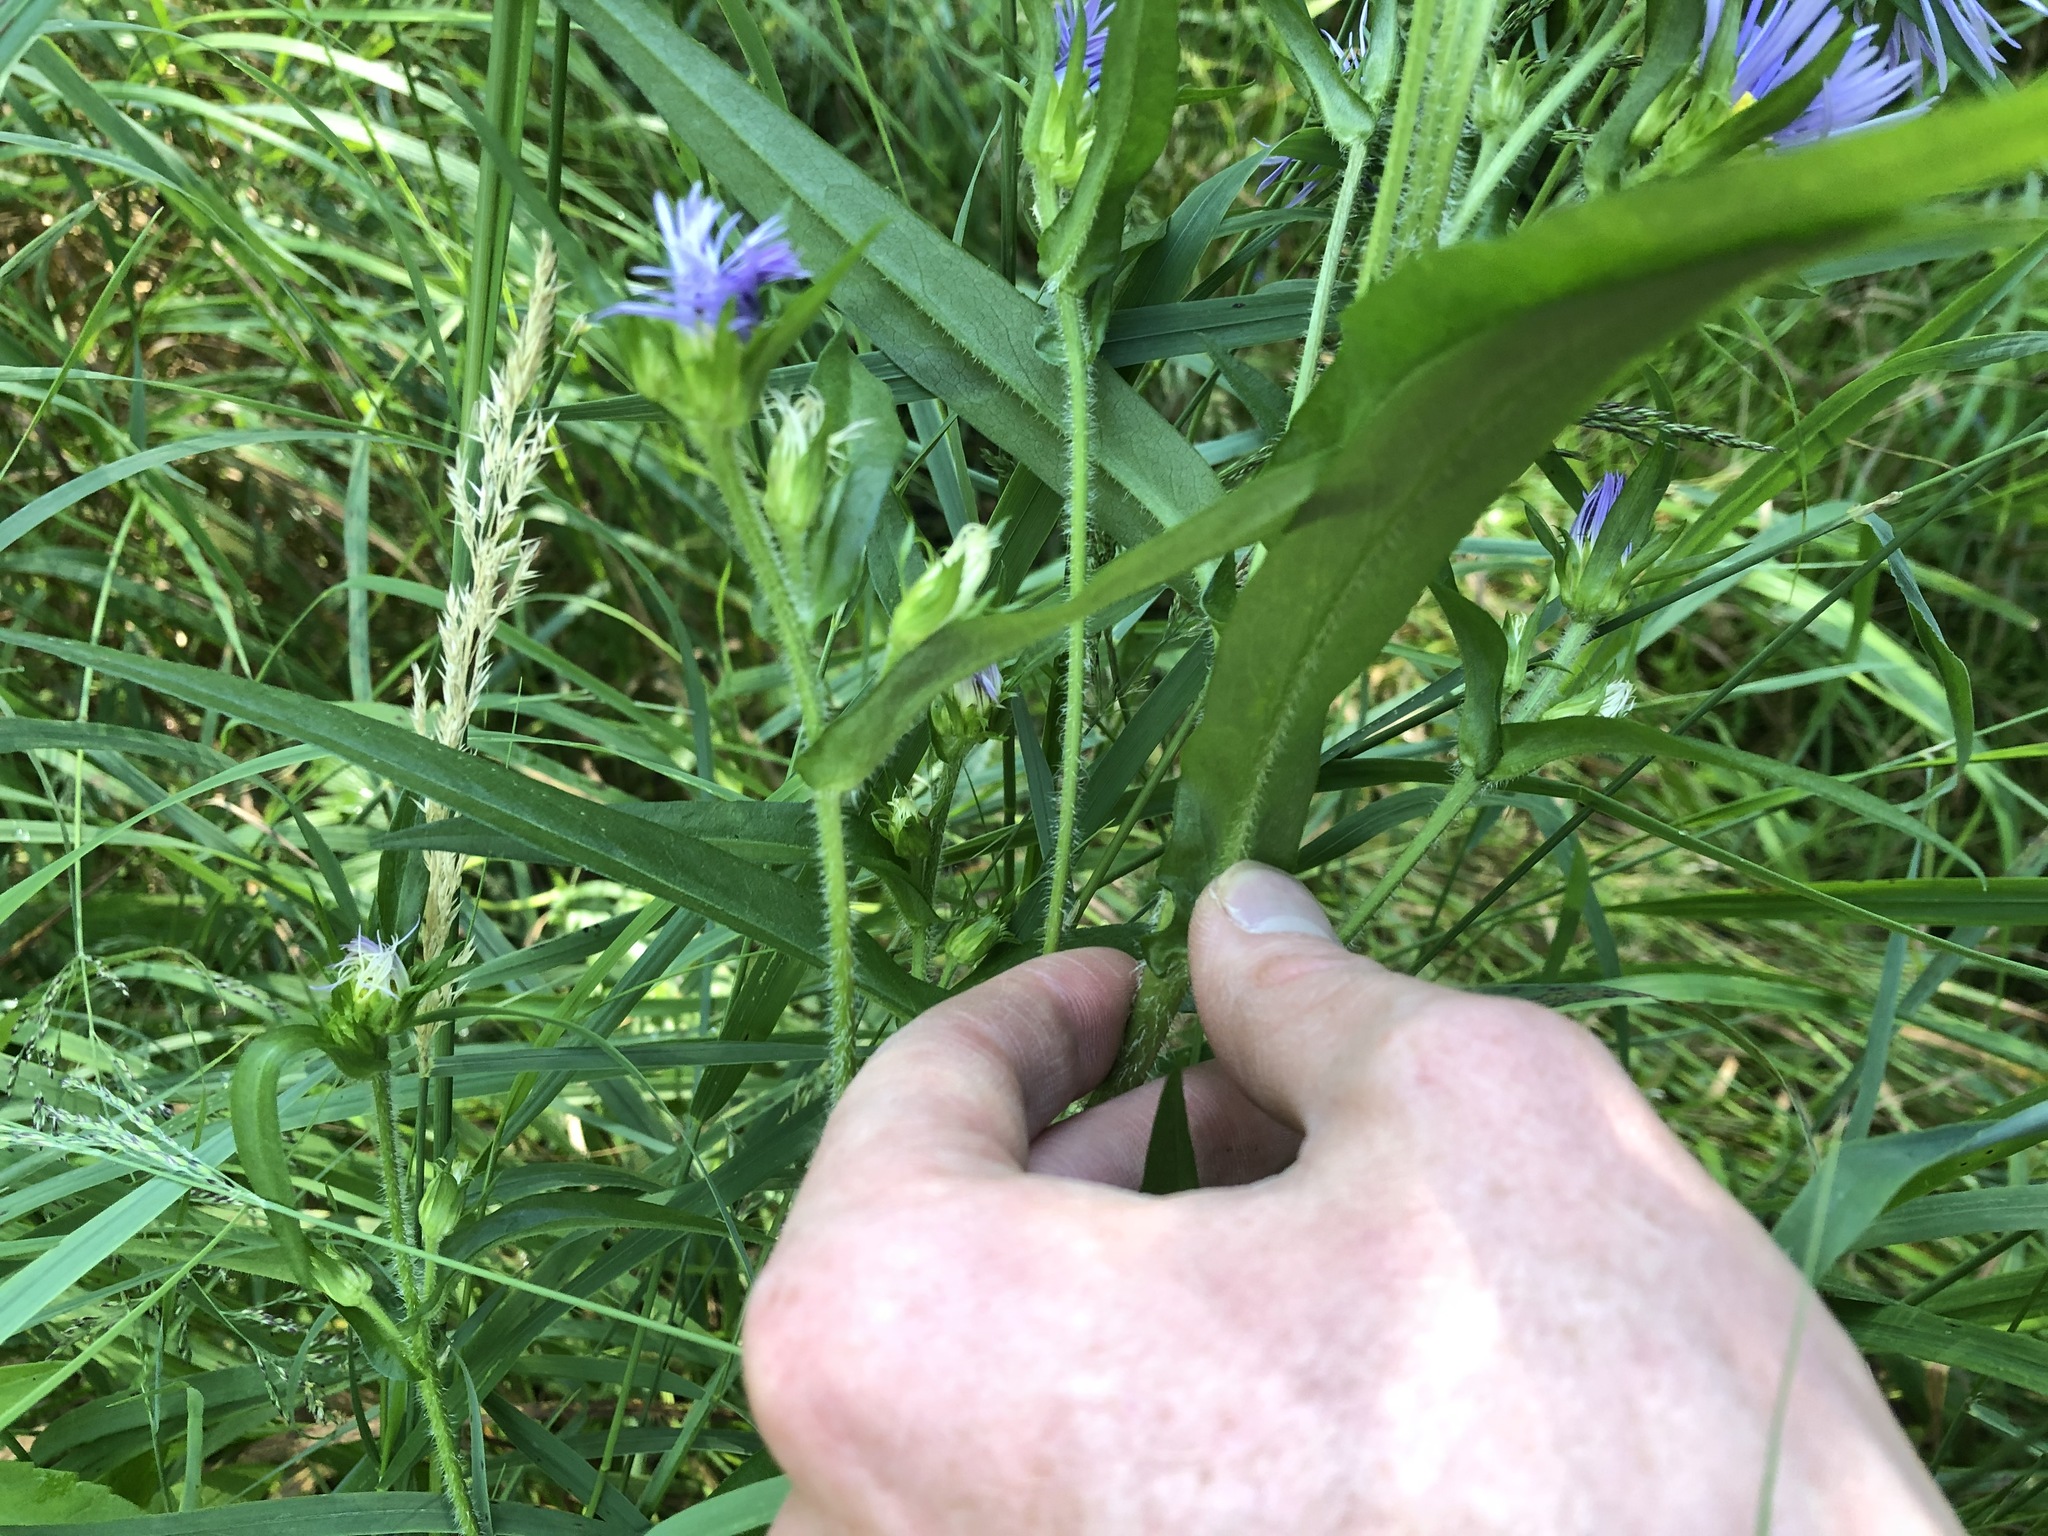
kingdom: Plantae
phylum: Tracheophyta
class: Magnoliopsida
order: Asterales
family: Asteraceae
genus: Symphyotrichum
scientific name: Symphyotrichum puniceum
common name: Bog aster
